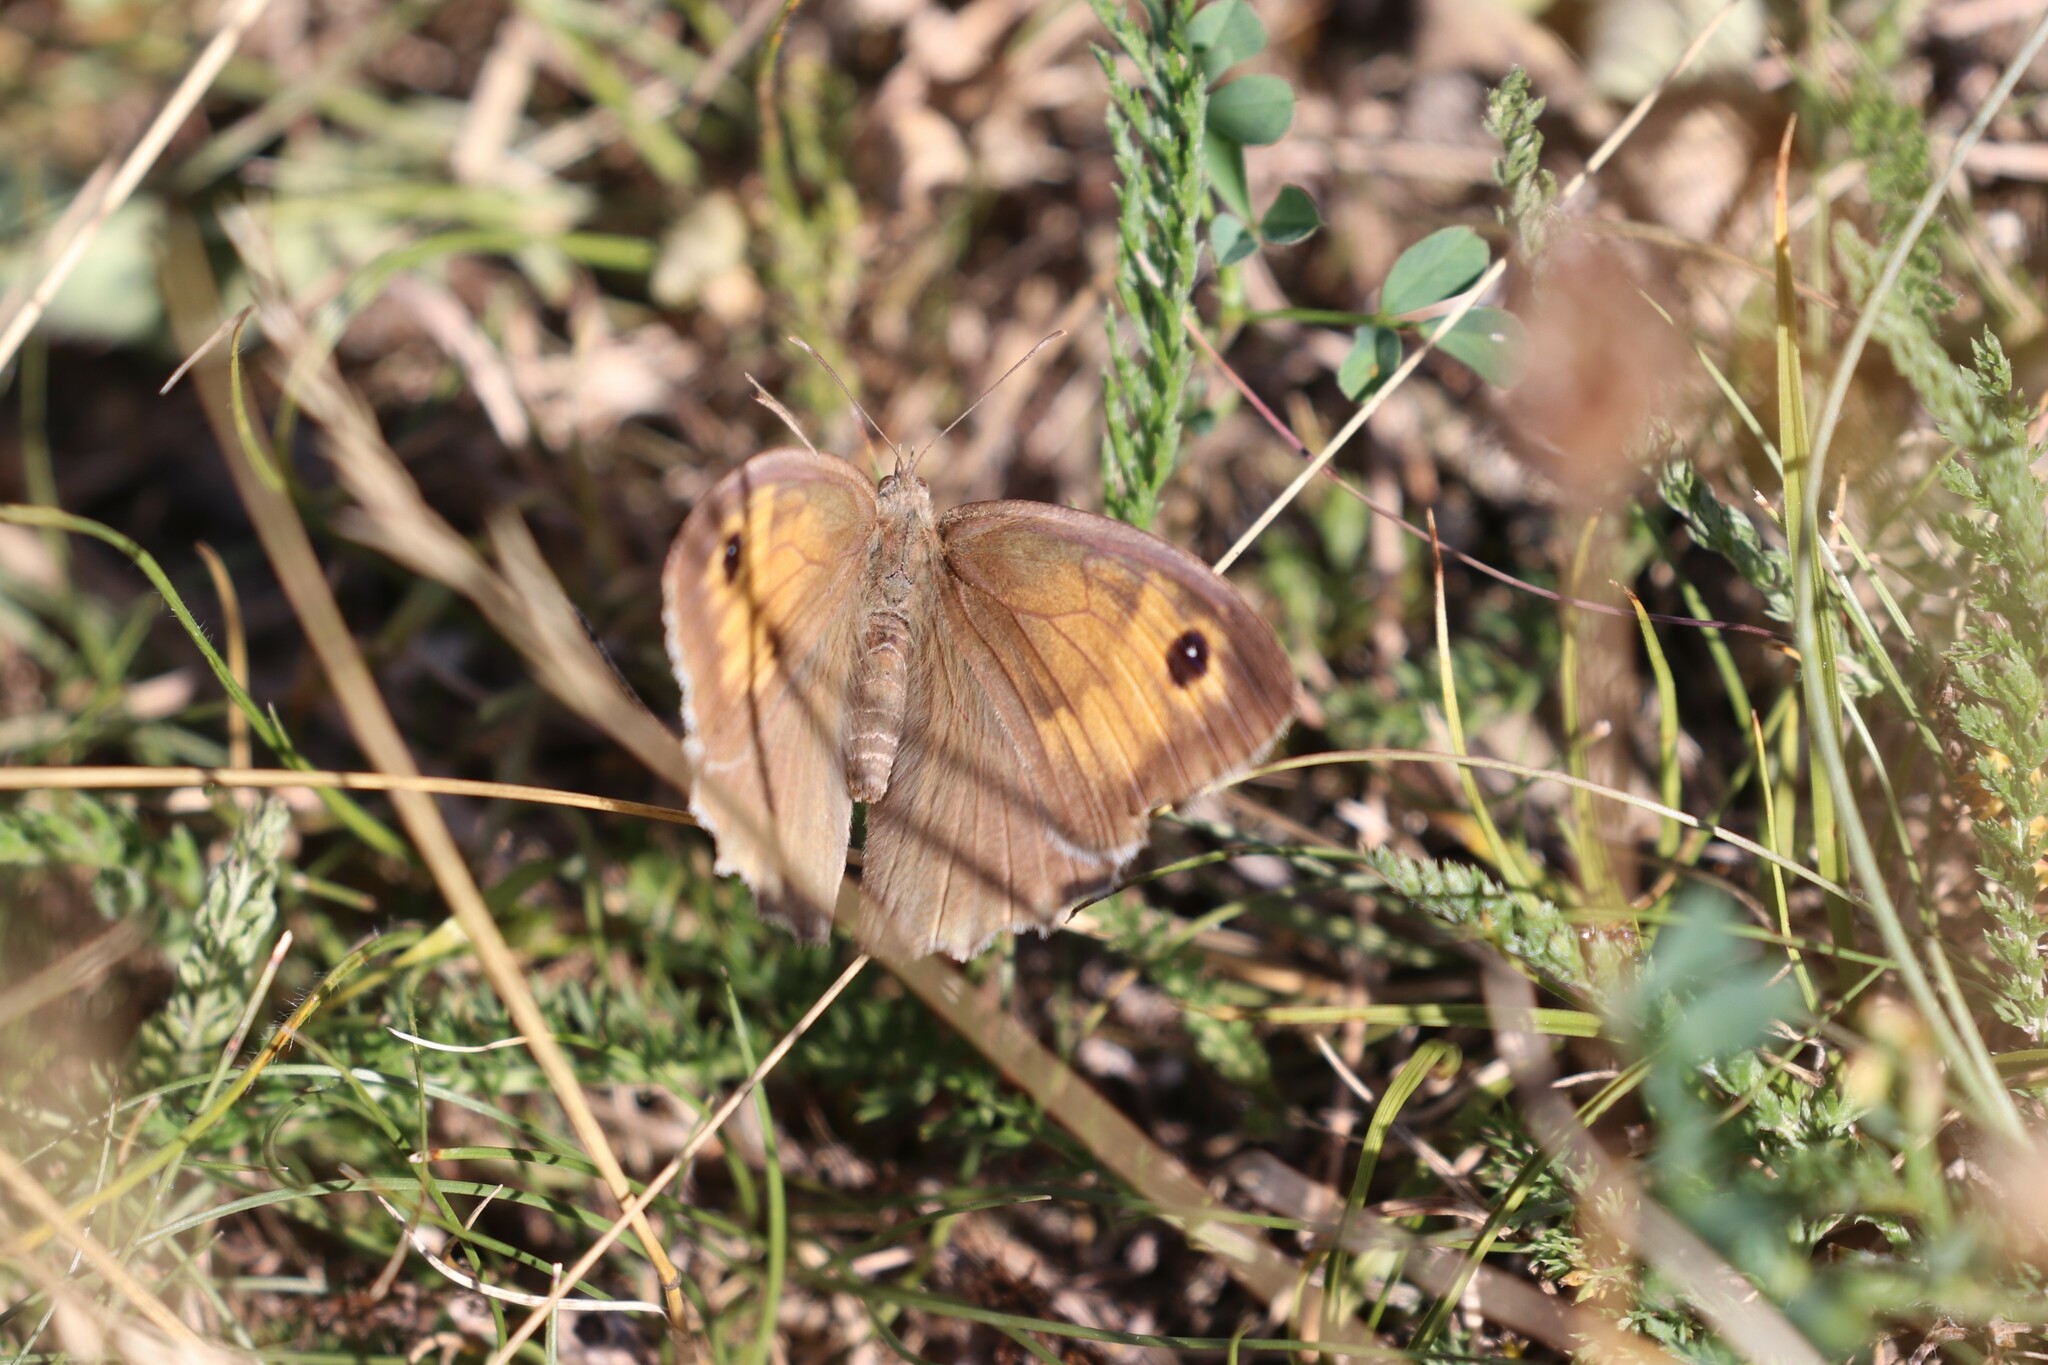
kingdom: Animalia
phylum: Arthropoda
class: Insecta
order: Lepidoptera
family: Nymphalidae
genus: Maniola
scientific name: Maniola jurtina
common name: Meadow brown
